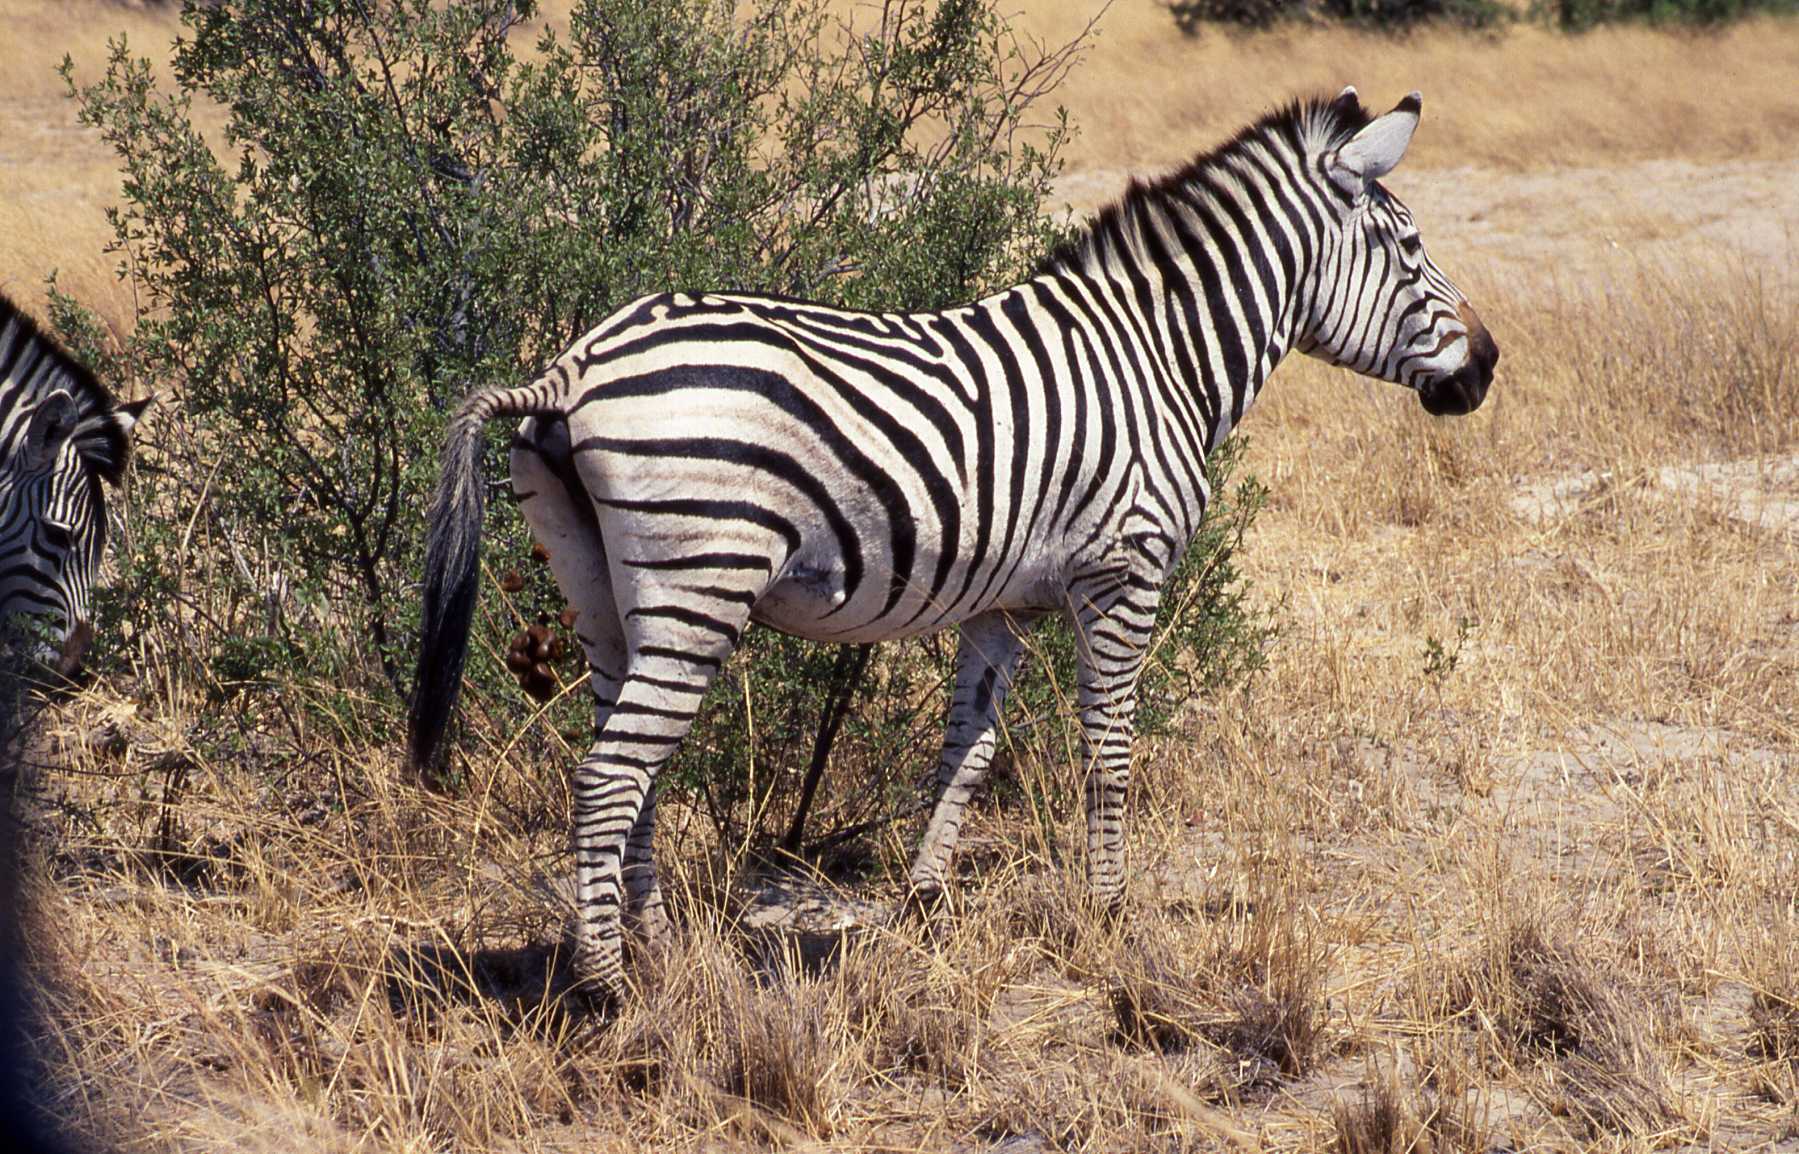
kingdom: Animalia
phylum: Chordata
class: Mammalia
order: Perissodactyla
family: Equidae
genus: Equus
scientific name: Equus quagga
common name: Plains zebra
